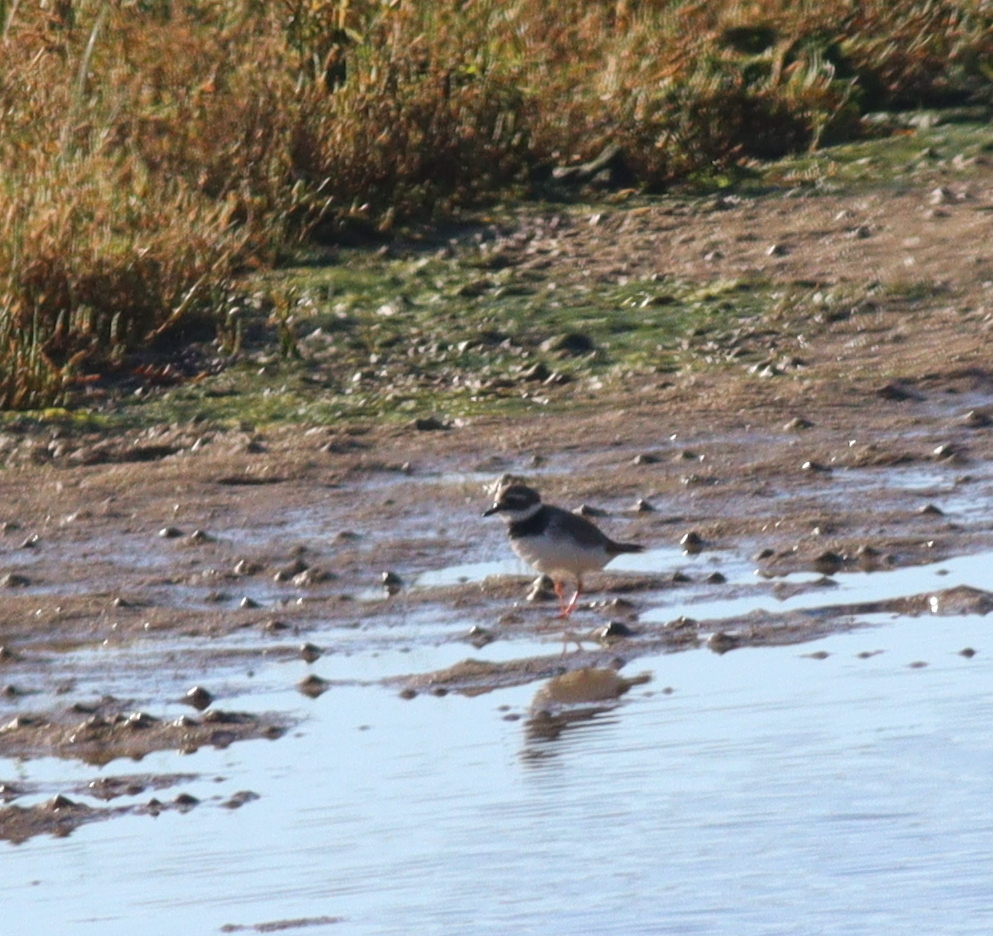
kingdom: Animalia
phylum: Chordata
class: Aves
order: Charadriiformes
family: Charadriidae
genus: Charadrius
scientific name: Charadrius hiaticula
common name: Common ringed plover
